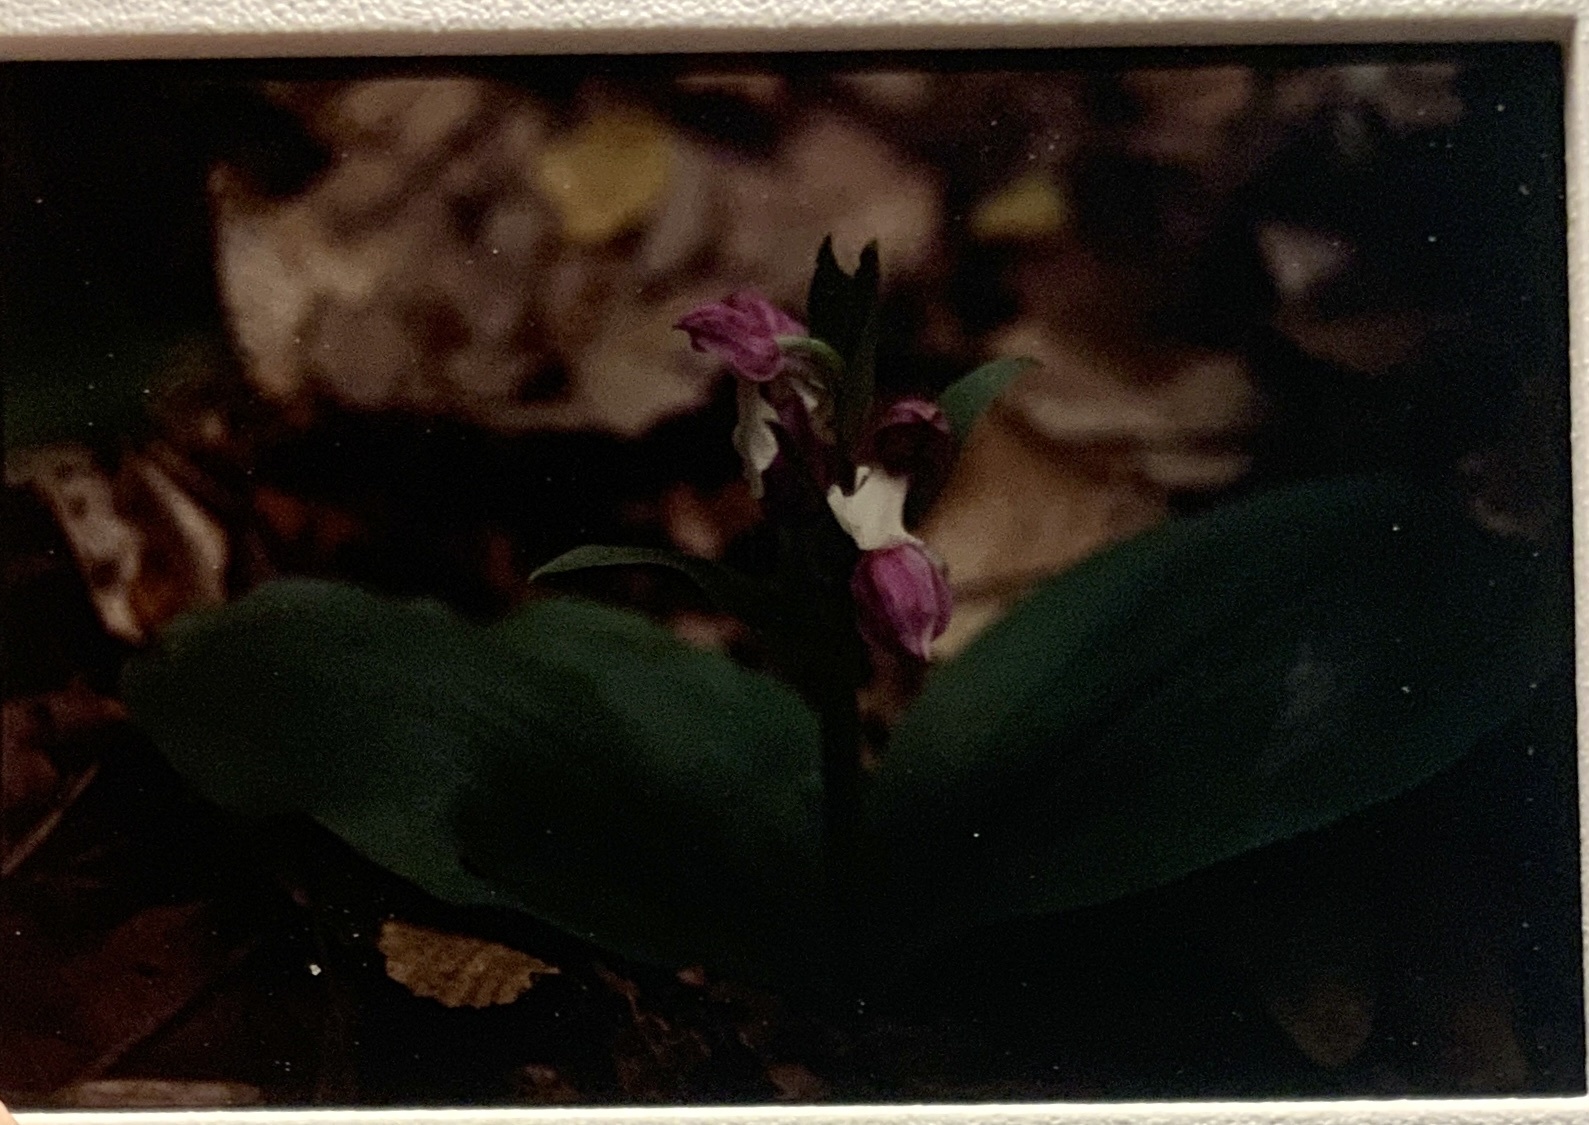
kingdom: Plantae
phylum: Tracheophyta
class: Liliopsida
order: Asparagales
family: Orchidaceae
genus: Galearis
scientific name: Galearis spectabilis
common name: Purple-hooded orchis
